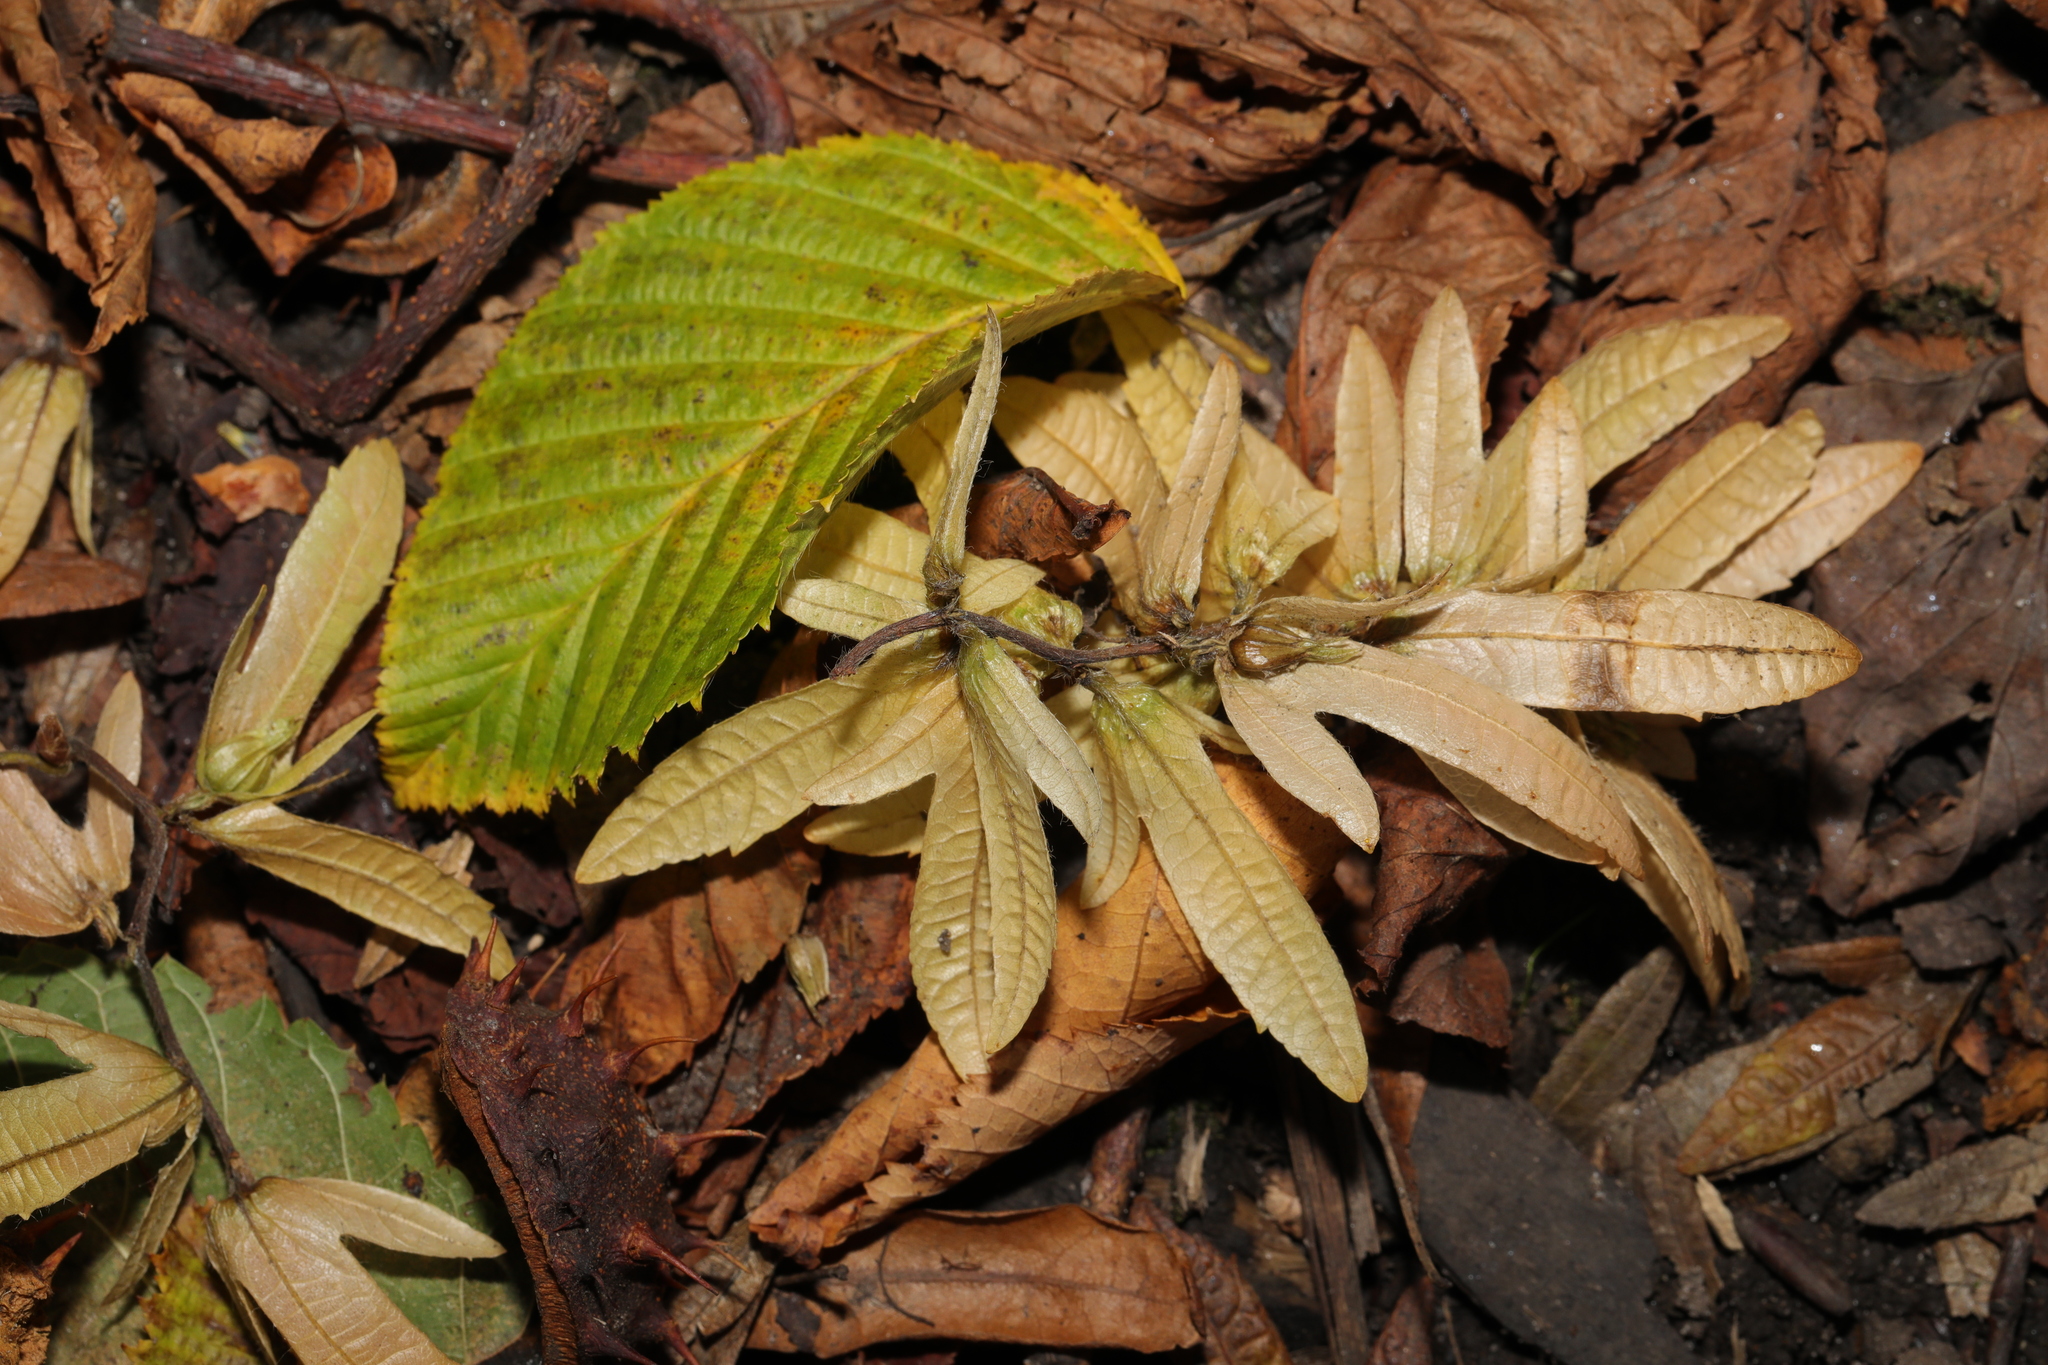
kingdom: Plantae
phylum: Tracheophyta
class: Magnoliopsida
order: Fagales
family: Betulaceae
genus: Carpinus
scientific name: Carpinus betulus
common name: Hornbeam
